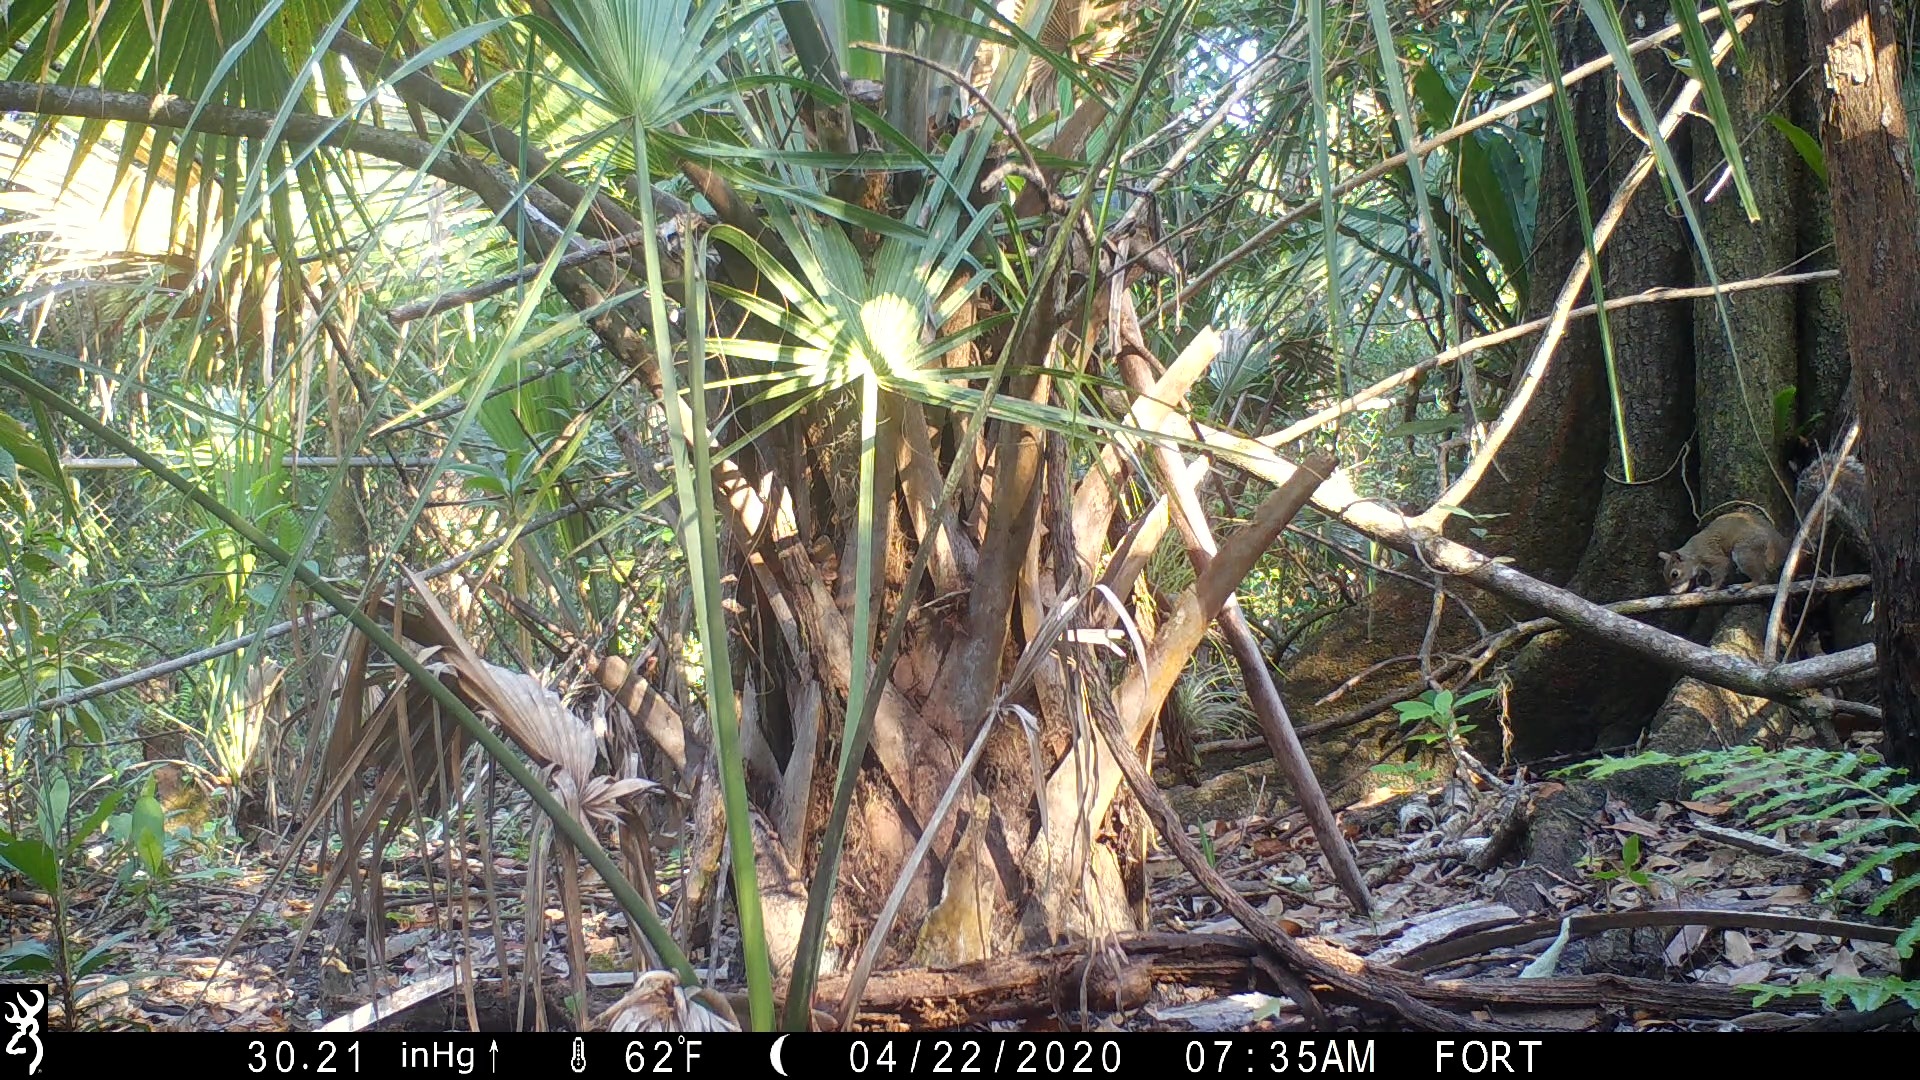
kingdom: Animalia
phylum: Chordata
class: Mammalia
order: Rodentia
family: Sciuridae
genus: Sciurus
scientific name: Sciurus carolinensis
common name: Eastern gray squirrel
